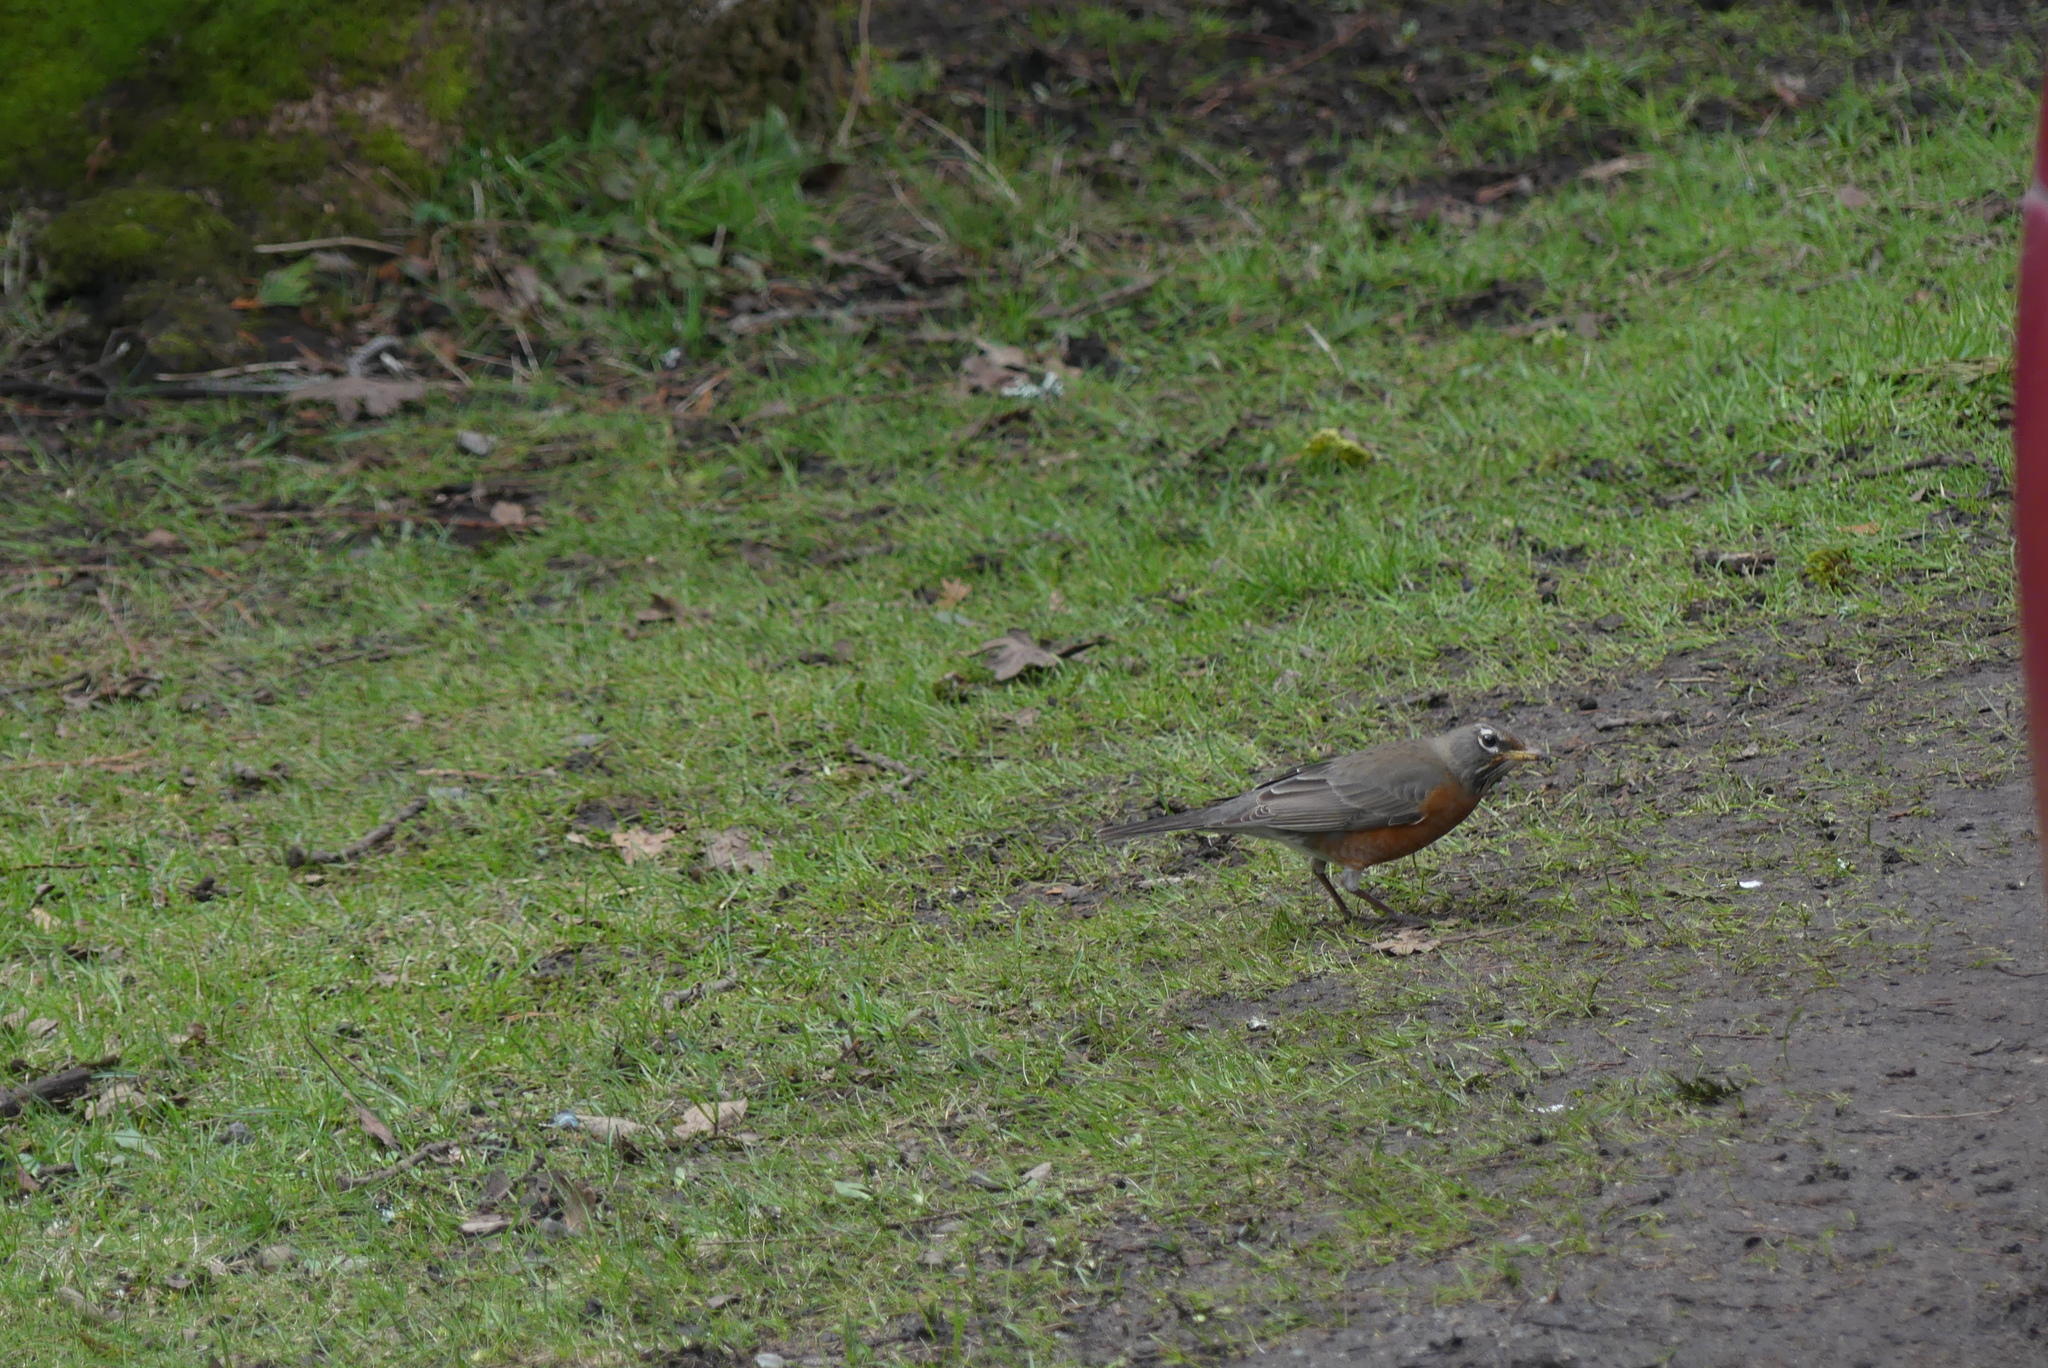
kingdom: Animalia
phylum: Chordata
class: Aves
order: Passeriformes
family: Turdidae
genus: Turdus
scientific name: Turdus migratorius
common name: American robin
